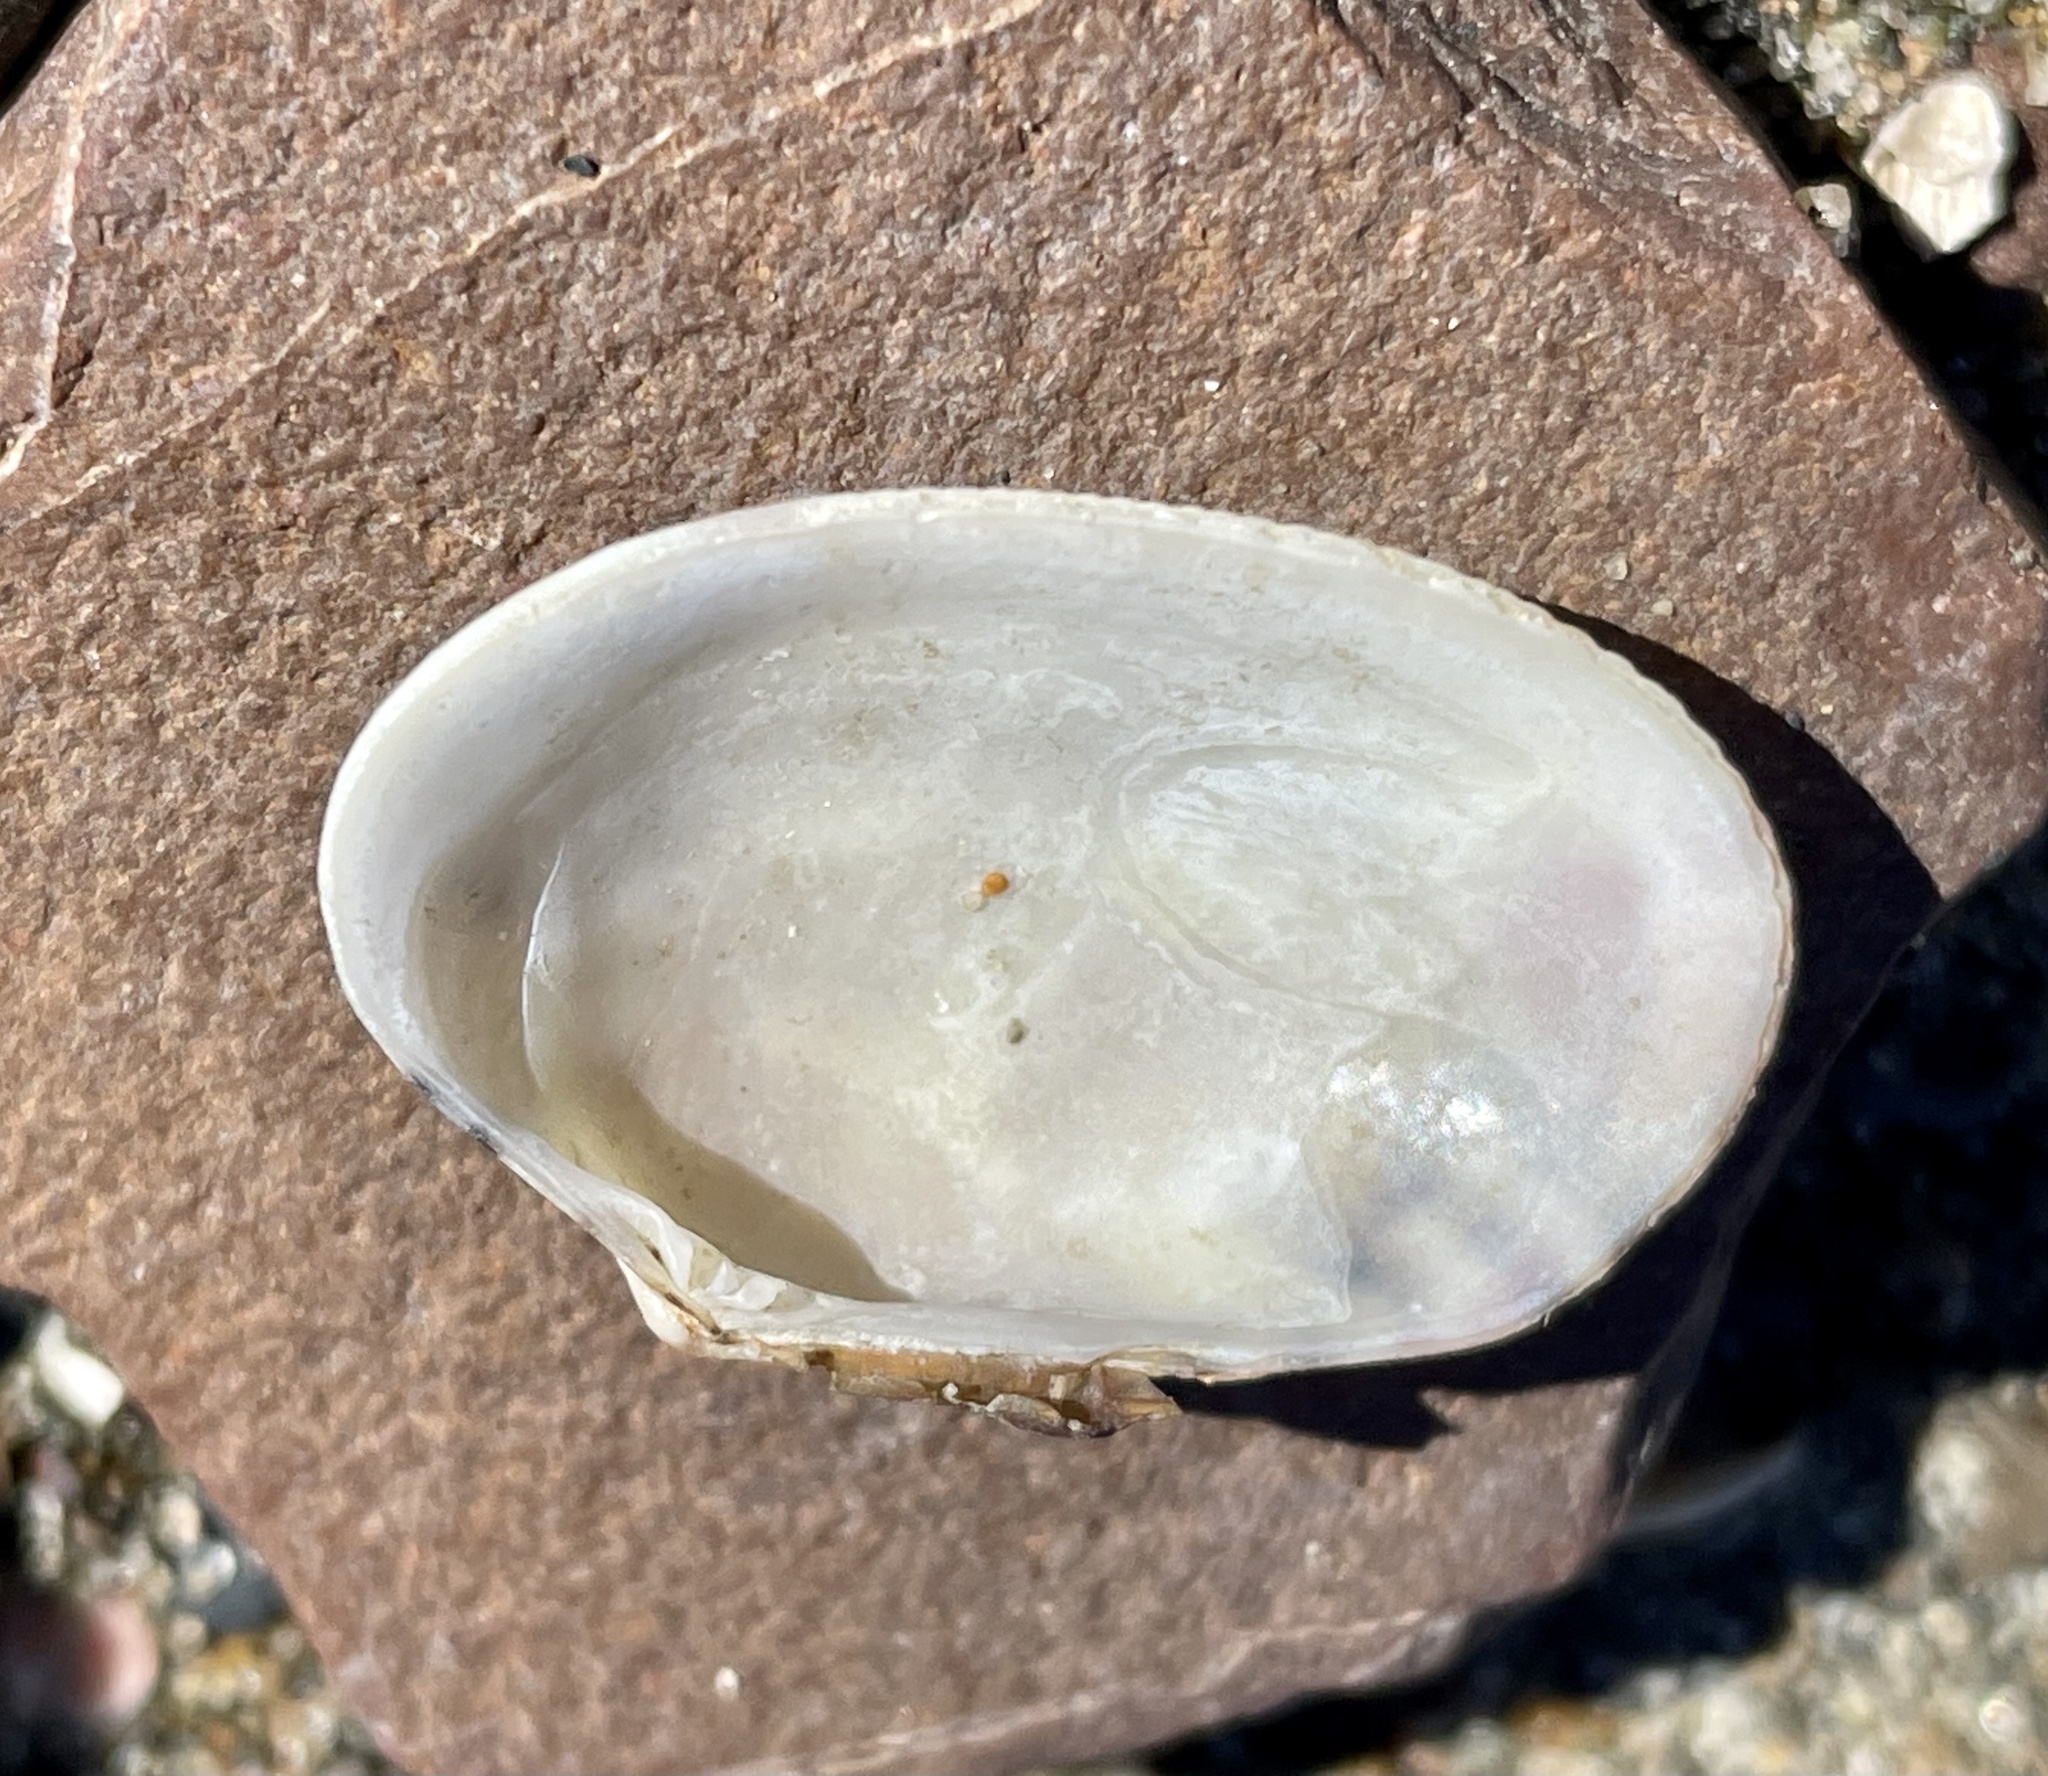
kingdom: Animalia
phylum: Mollusca
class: Bivalvia
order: Venerida
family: Veneridae
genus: Ruditapes
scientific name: Ruditapes philippinarum
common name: Manila clam
